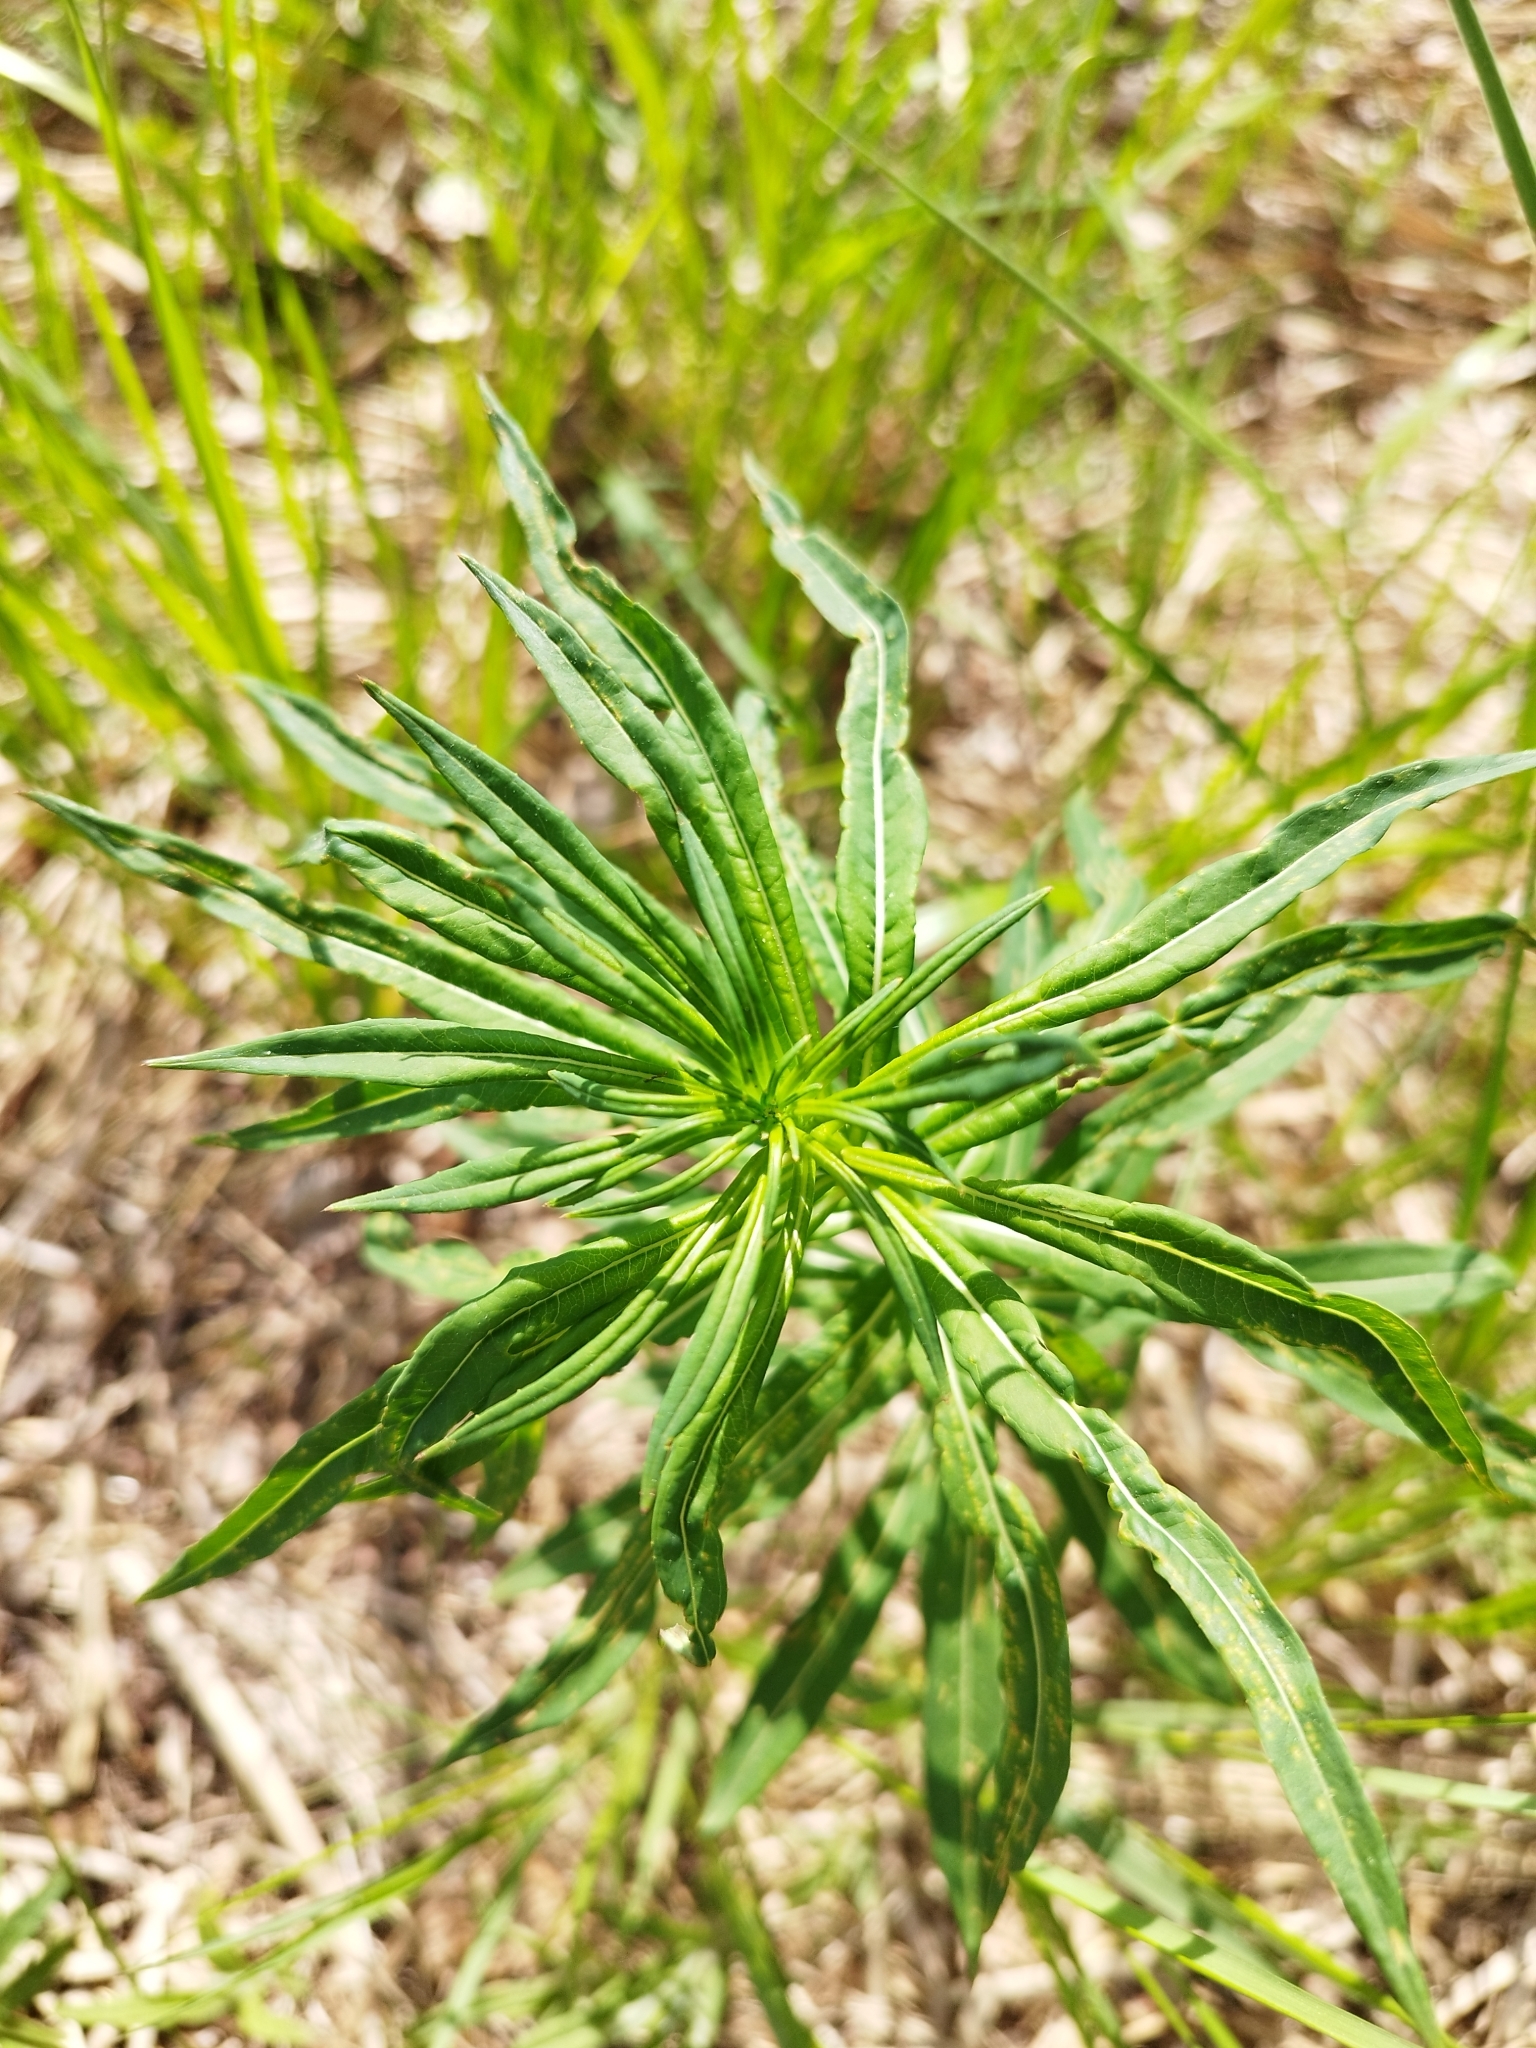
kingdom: Plantae
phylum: Tracheophyta
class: Magnoliopsida
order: Myrtales
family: Onagraceae
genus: Chamaenerion
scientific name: Chamaenerion angustifolium
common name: Fireweed
